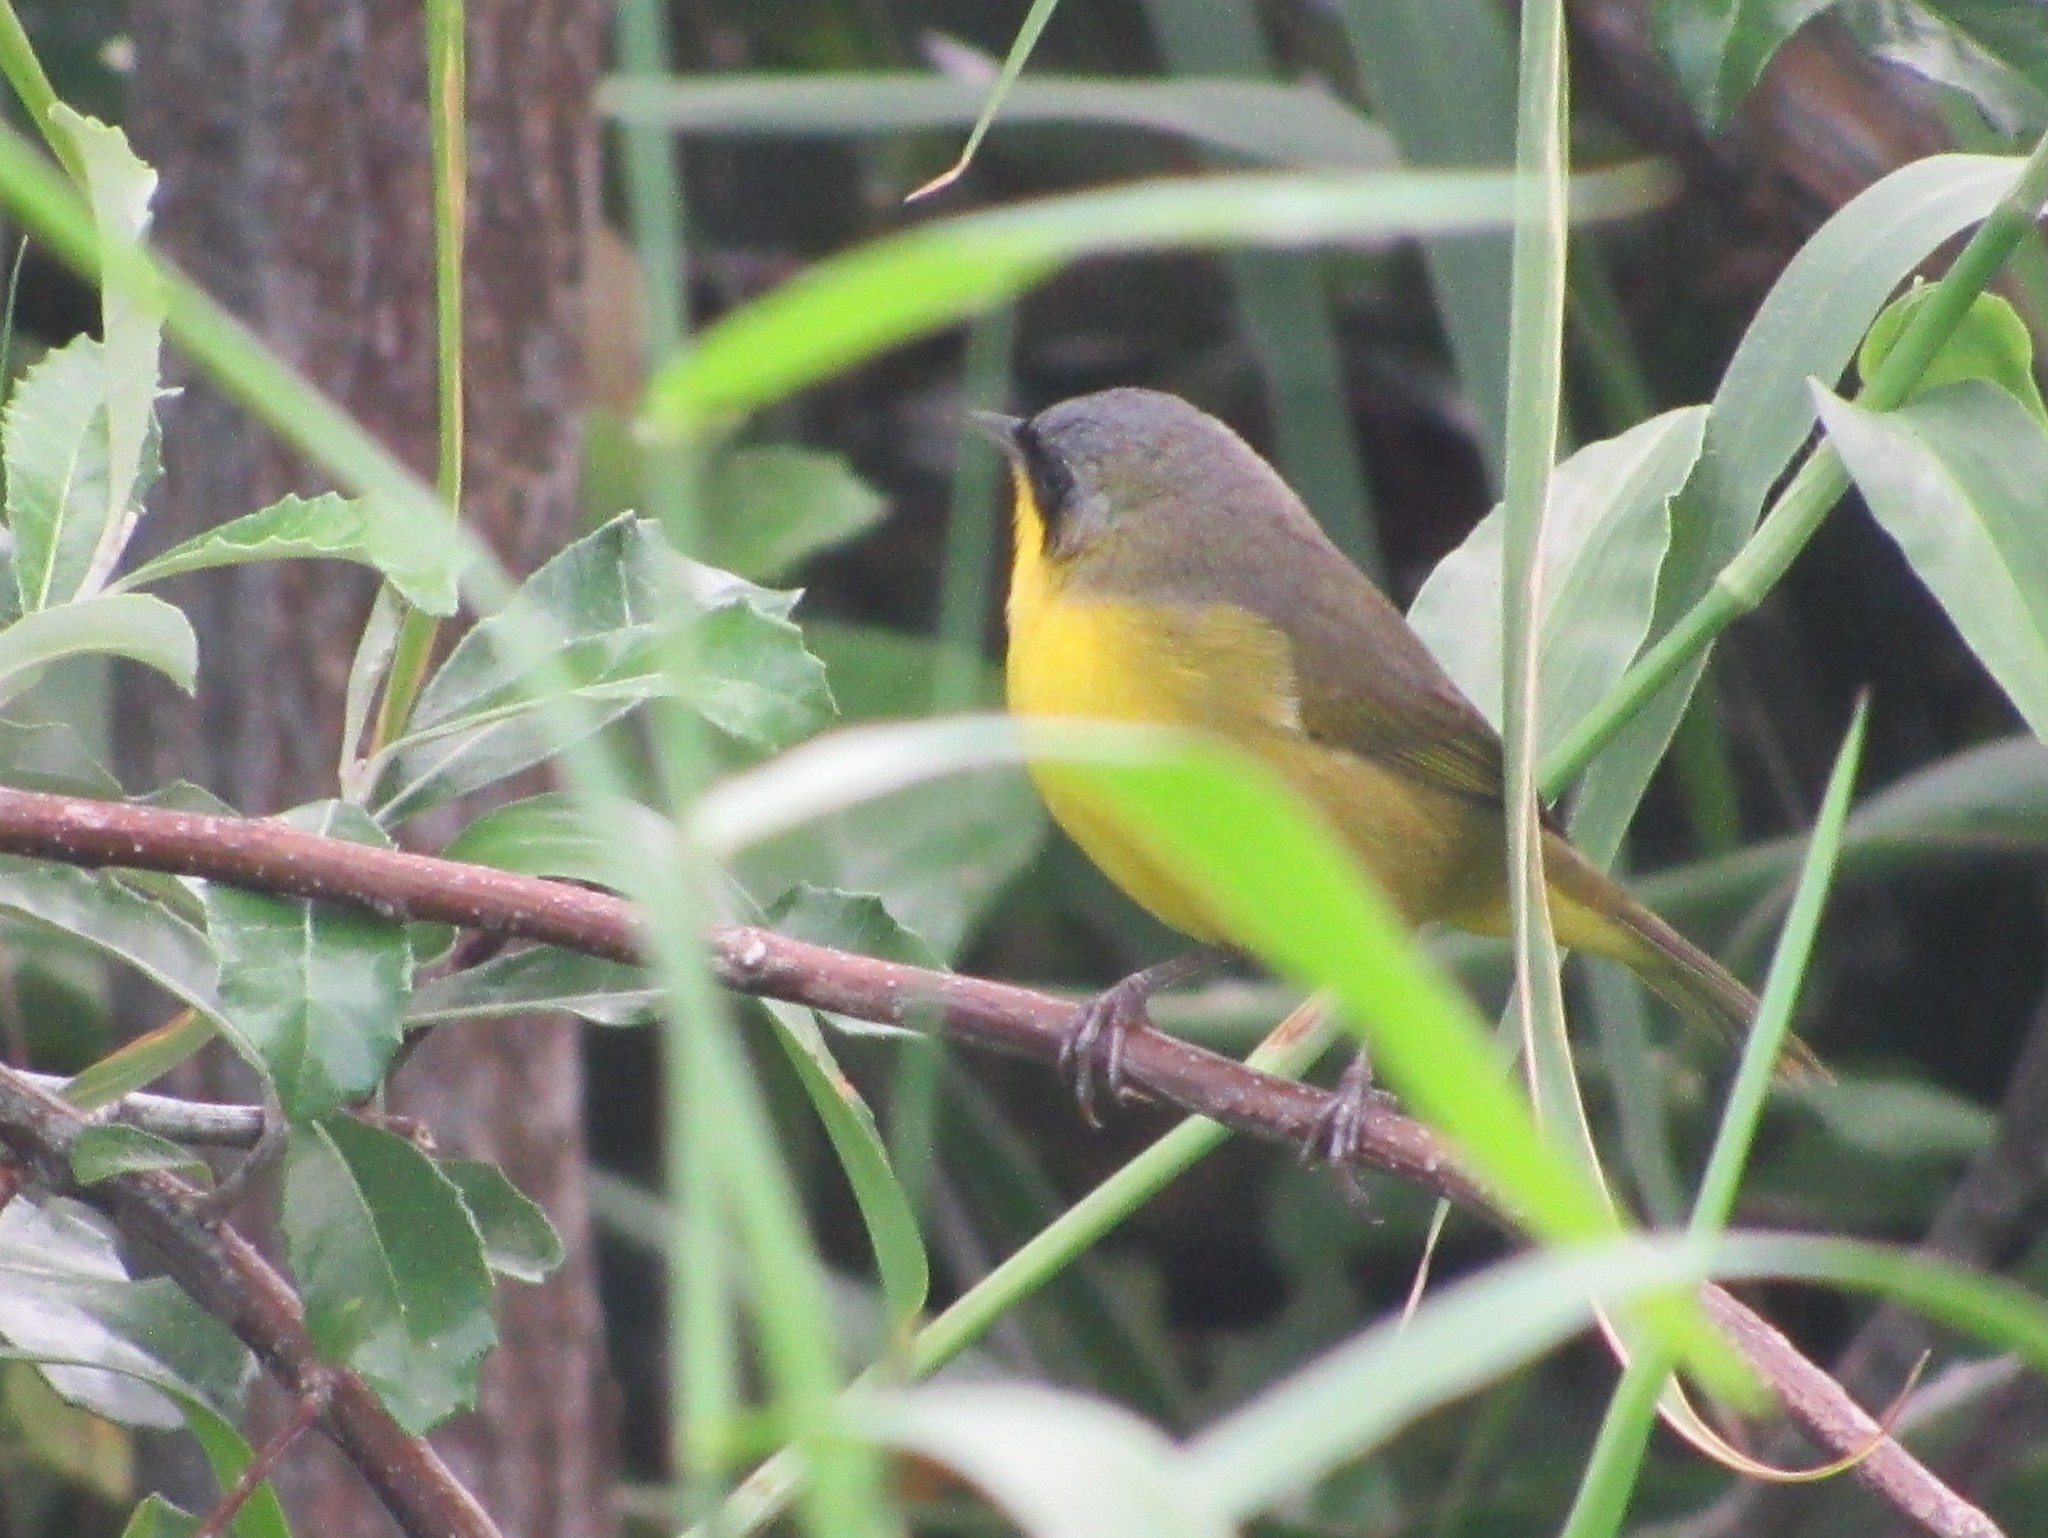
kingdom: Animalia
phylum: Chordata
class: Aves
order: Passeriformes
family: Parulidae
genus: Geothlypis
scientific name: Geothlypis velata
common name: Southern yellowthroat
